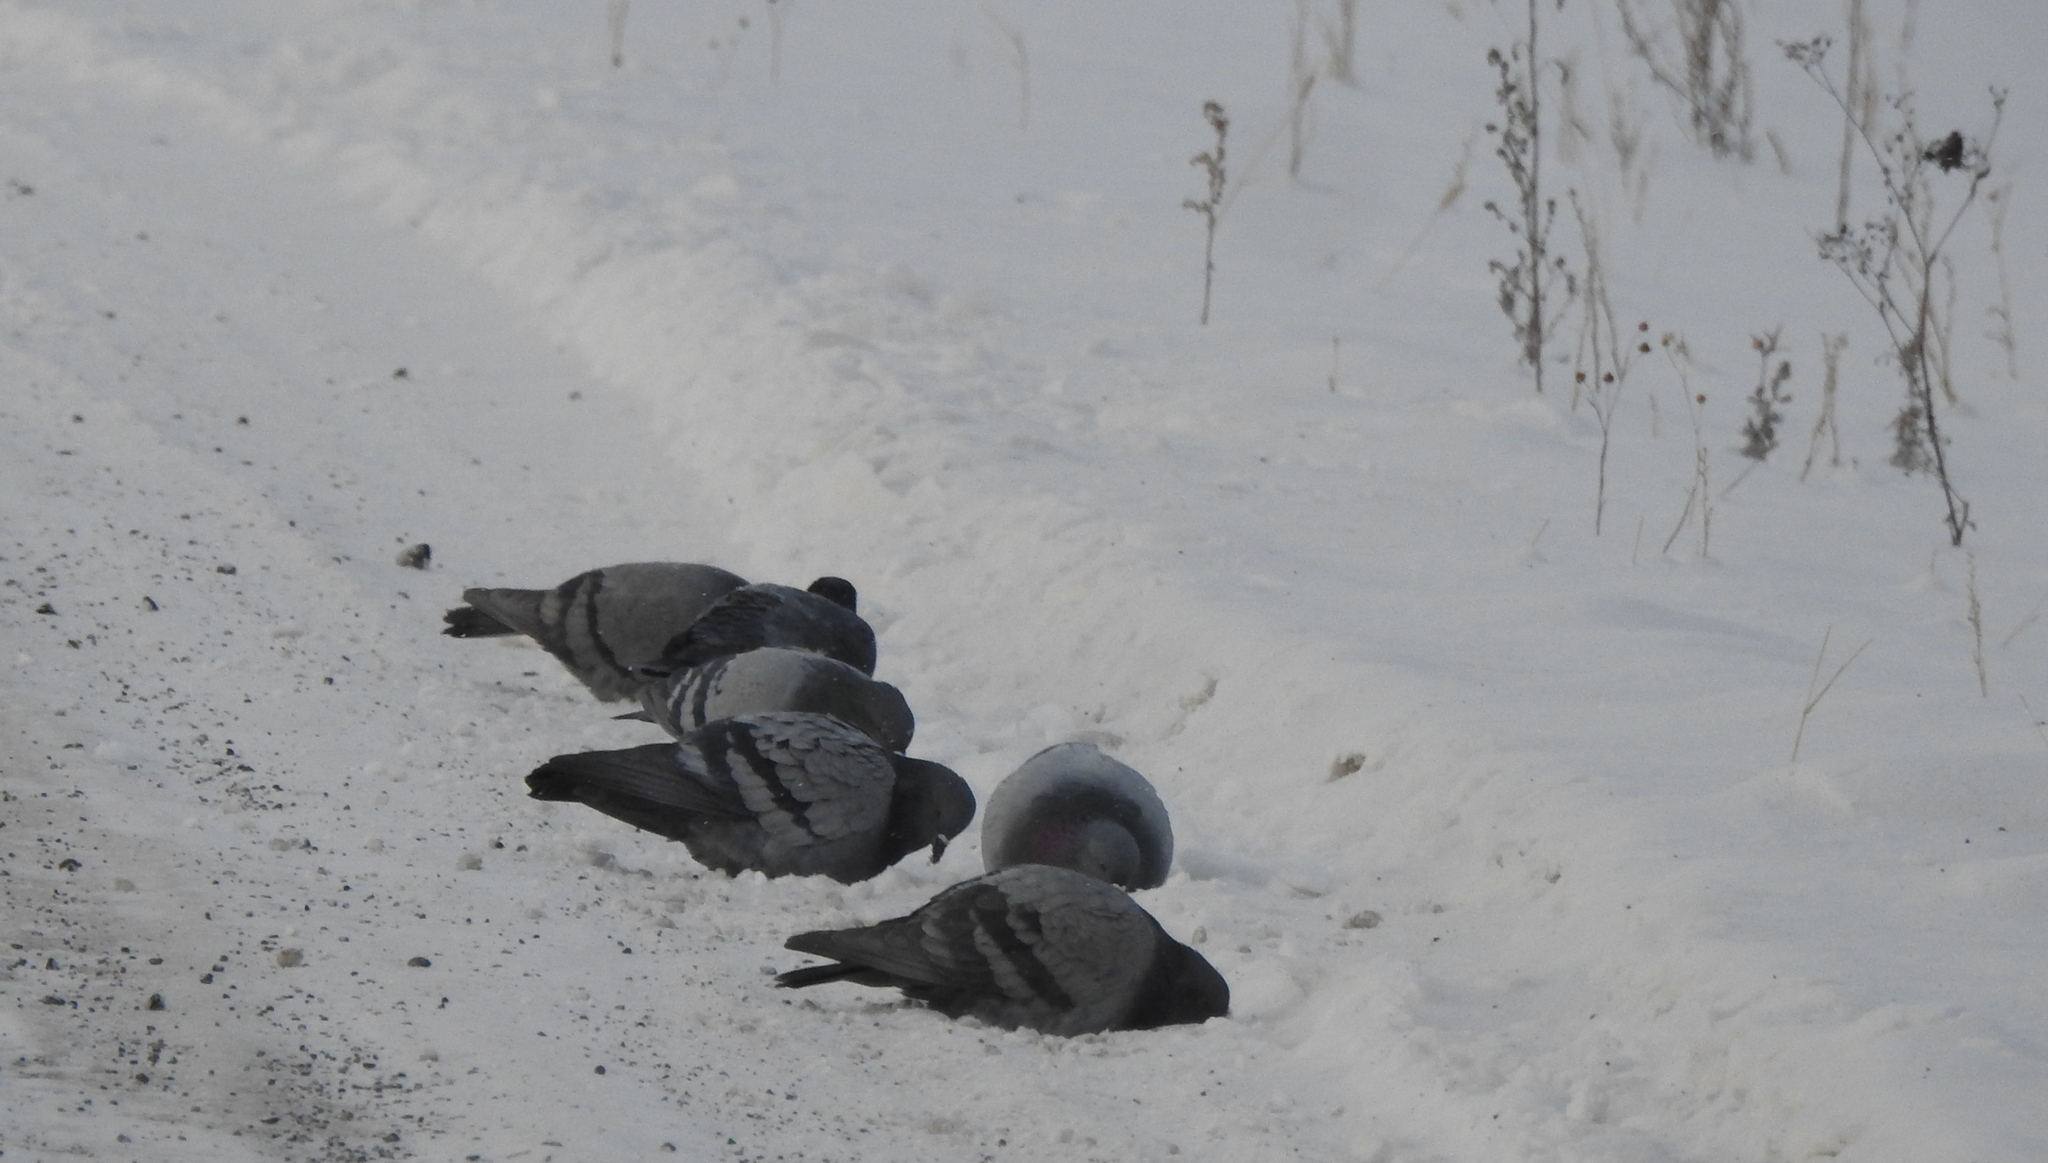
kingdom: Animalia
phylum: Chordata
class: Aves
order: Columbiformes
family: Columbidae
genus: Columba
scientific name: Columba rupestris
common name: Hill pigeon
